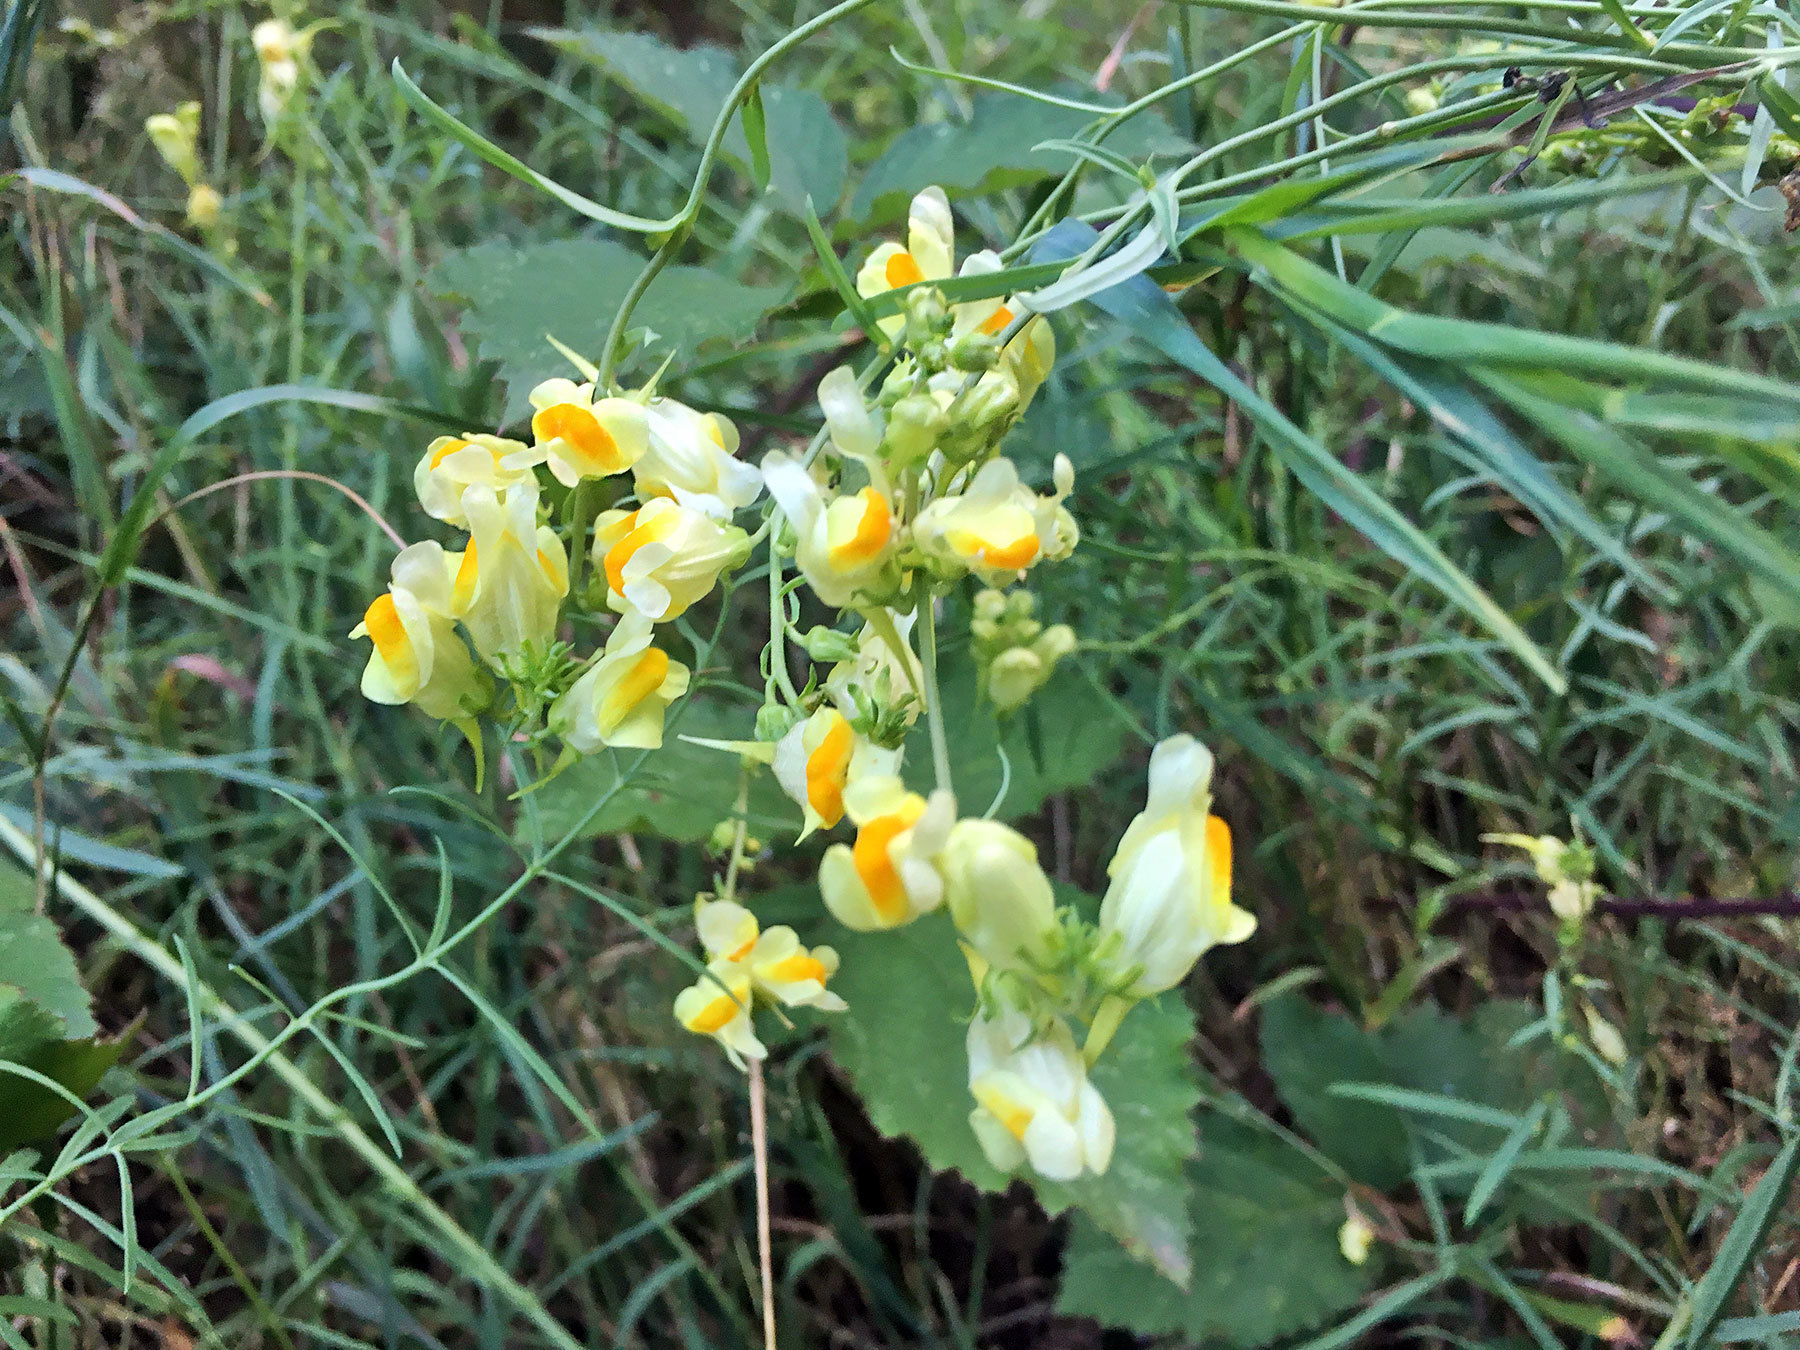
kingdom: Plantae
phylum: Tracheophyta
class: Magnoliopsida
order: Lamiales
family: Plantaginaceae
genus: Linaria
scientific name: Linaria vulgaris
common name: Butter and eggs
